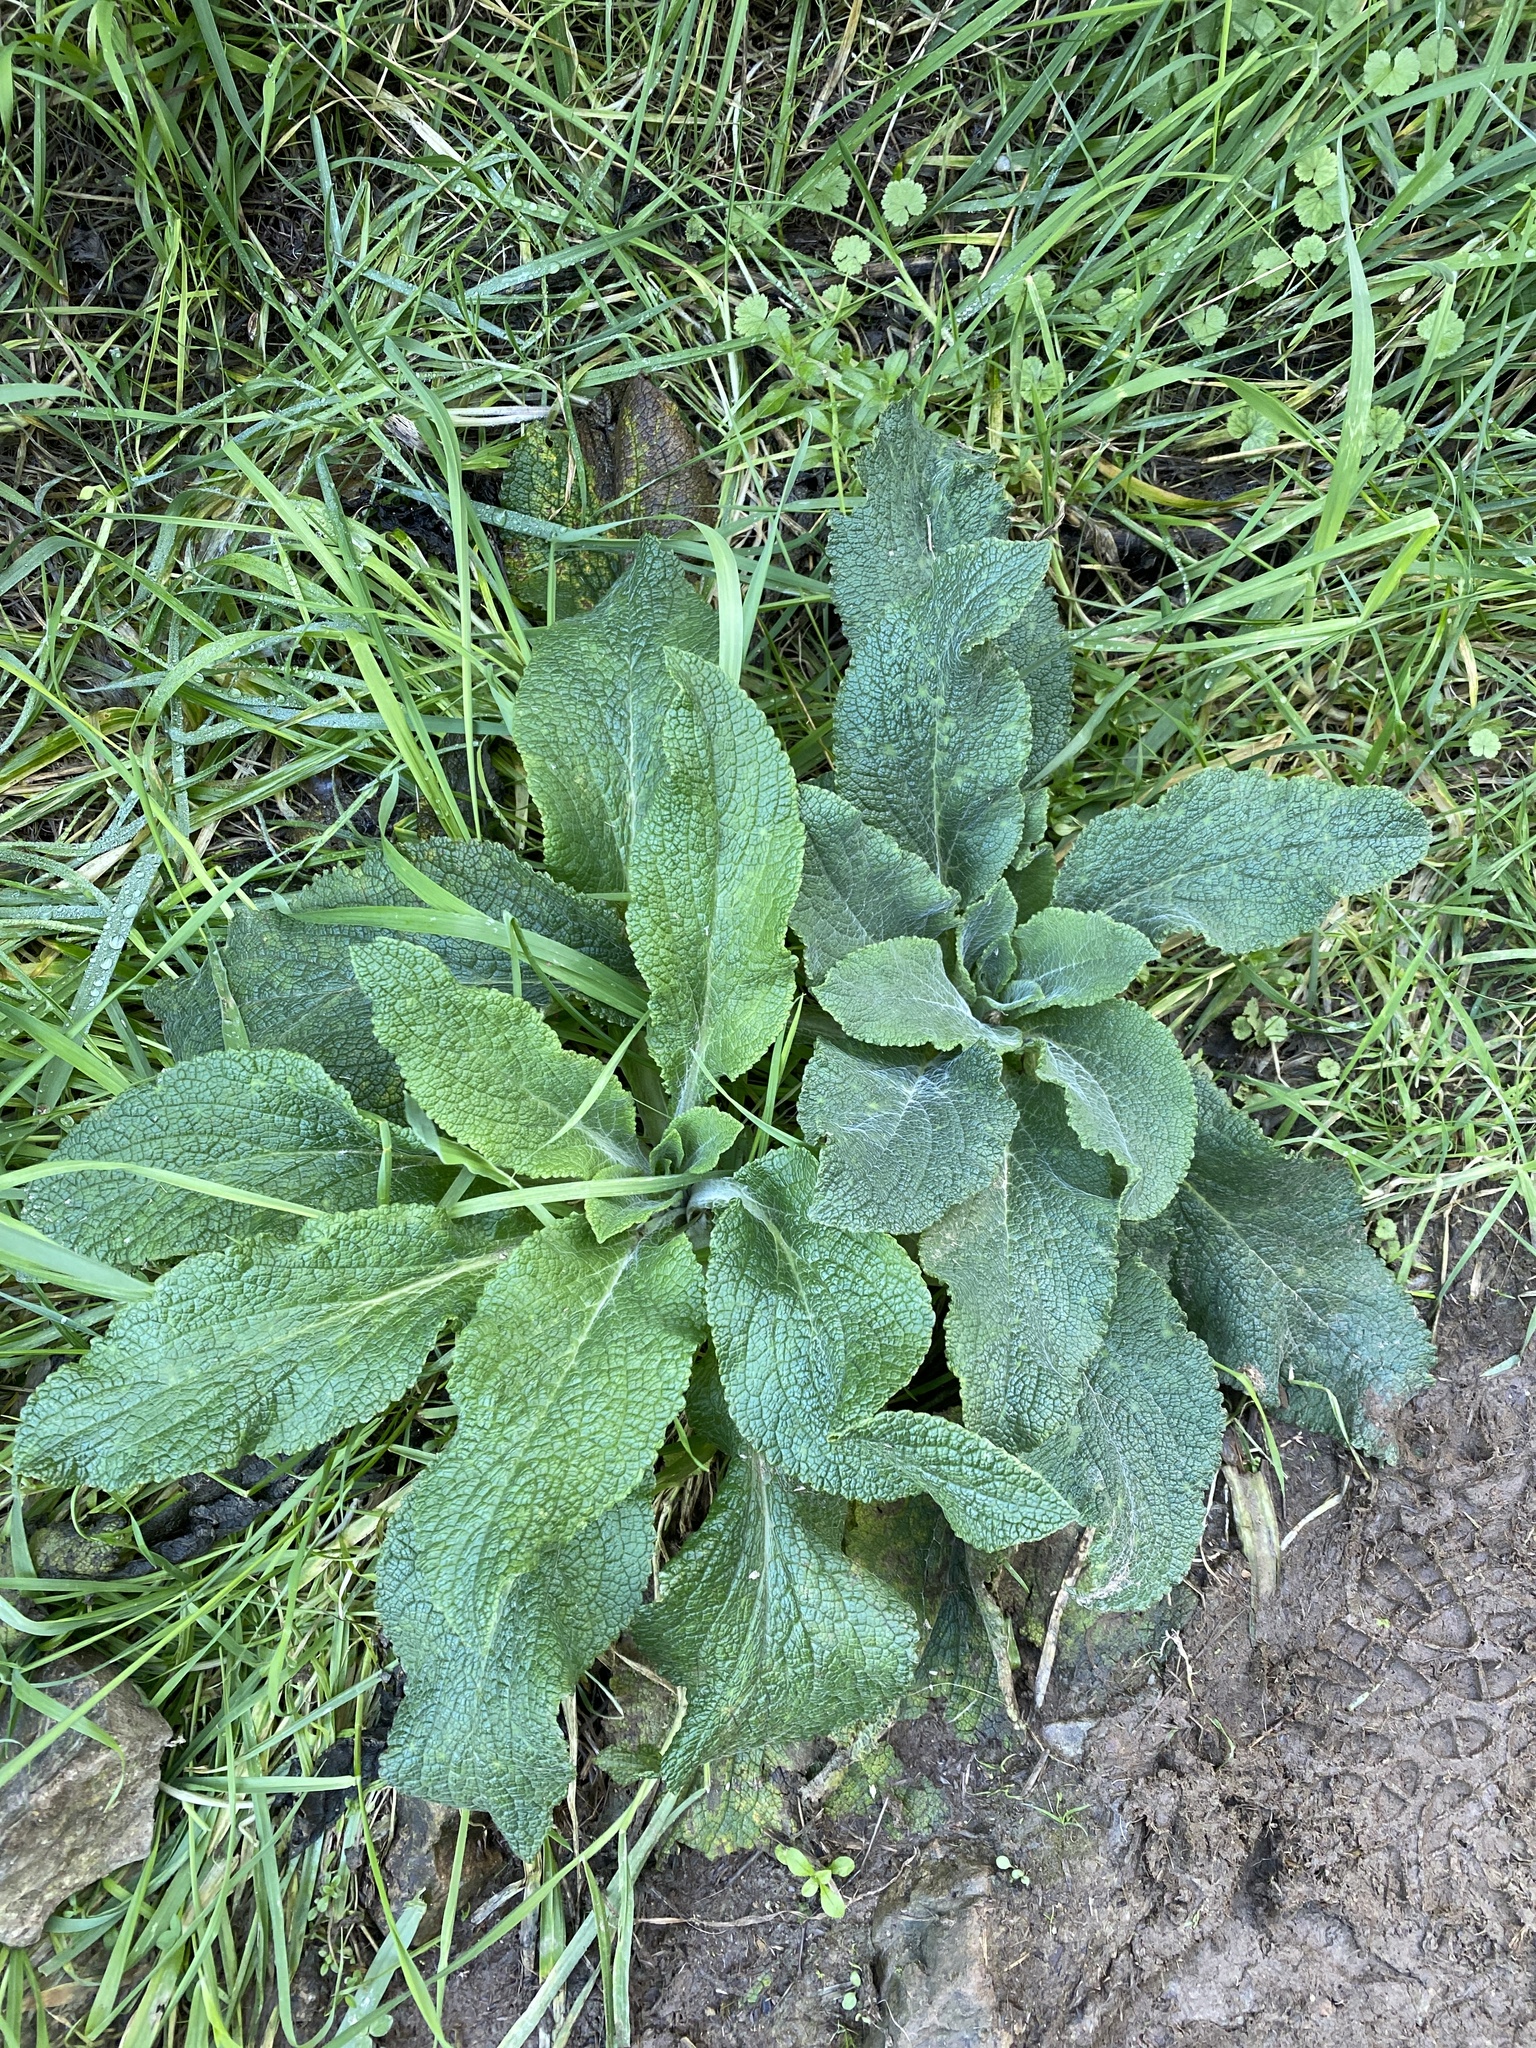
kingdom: Plantae
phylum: Tracheophyta
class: Magnoliopsida
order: Lamiales
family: Plantaginaceae
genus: Digitalis
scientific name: Digitalis purpurea
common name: Foxglove
